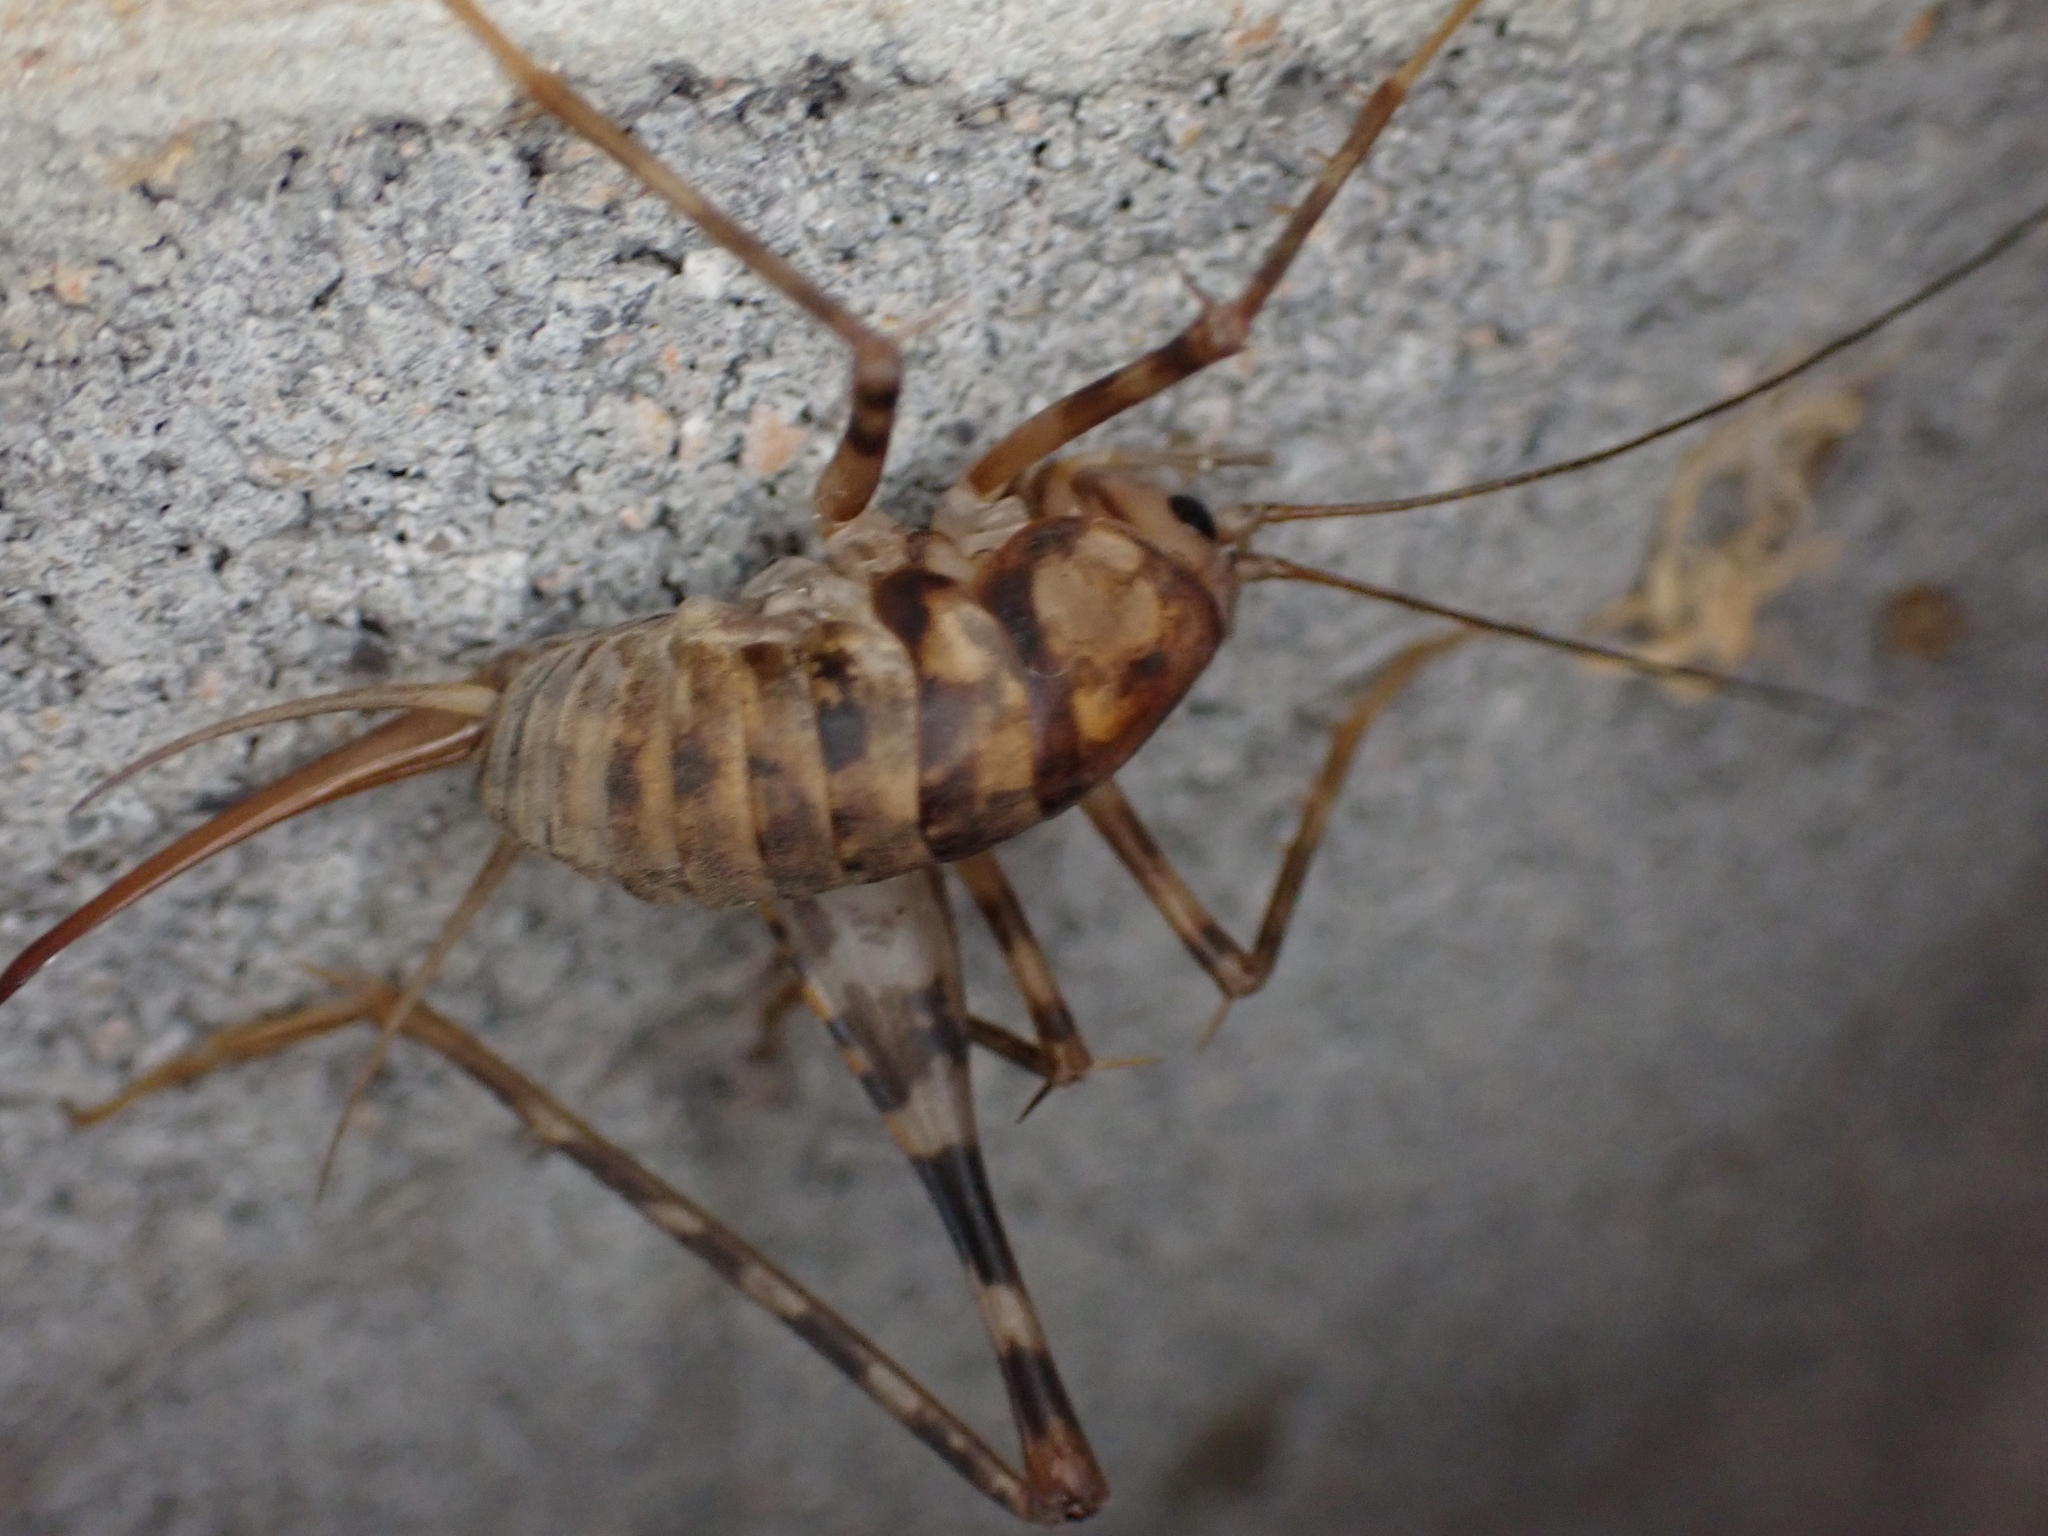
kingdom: Animalia
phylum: Arthropoda
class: Insecta
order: Orthoptera
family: Rhaphidophoridae
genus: Tachycines
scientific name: Tachycines asynamorus
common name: Greenhouse camel cricket
